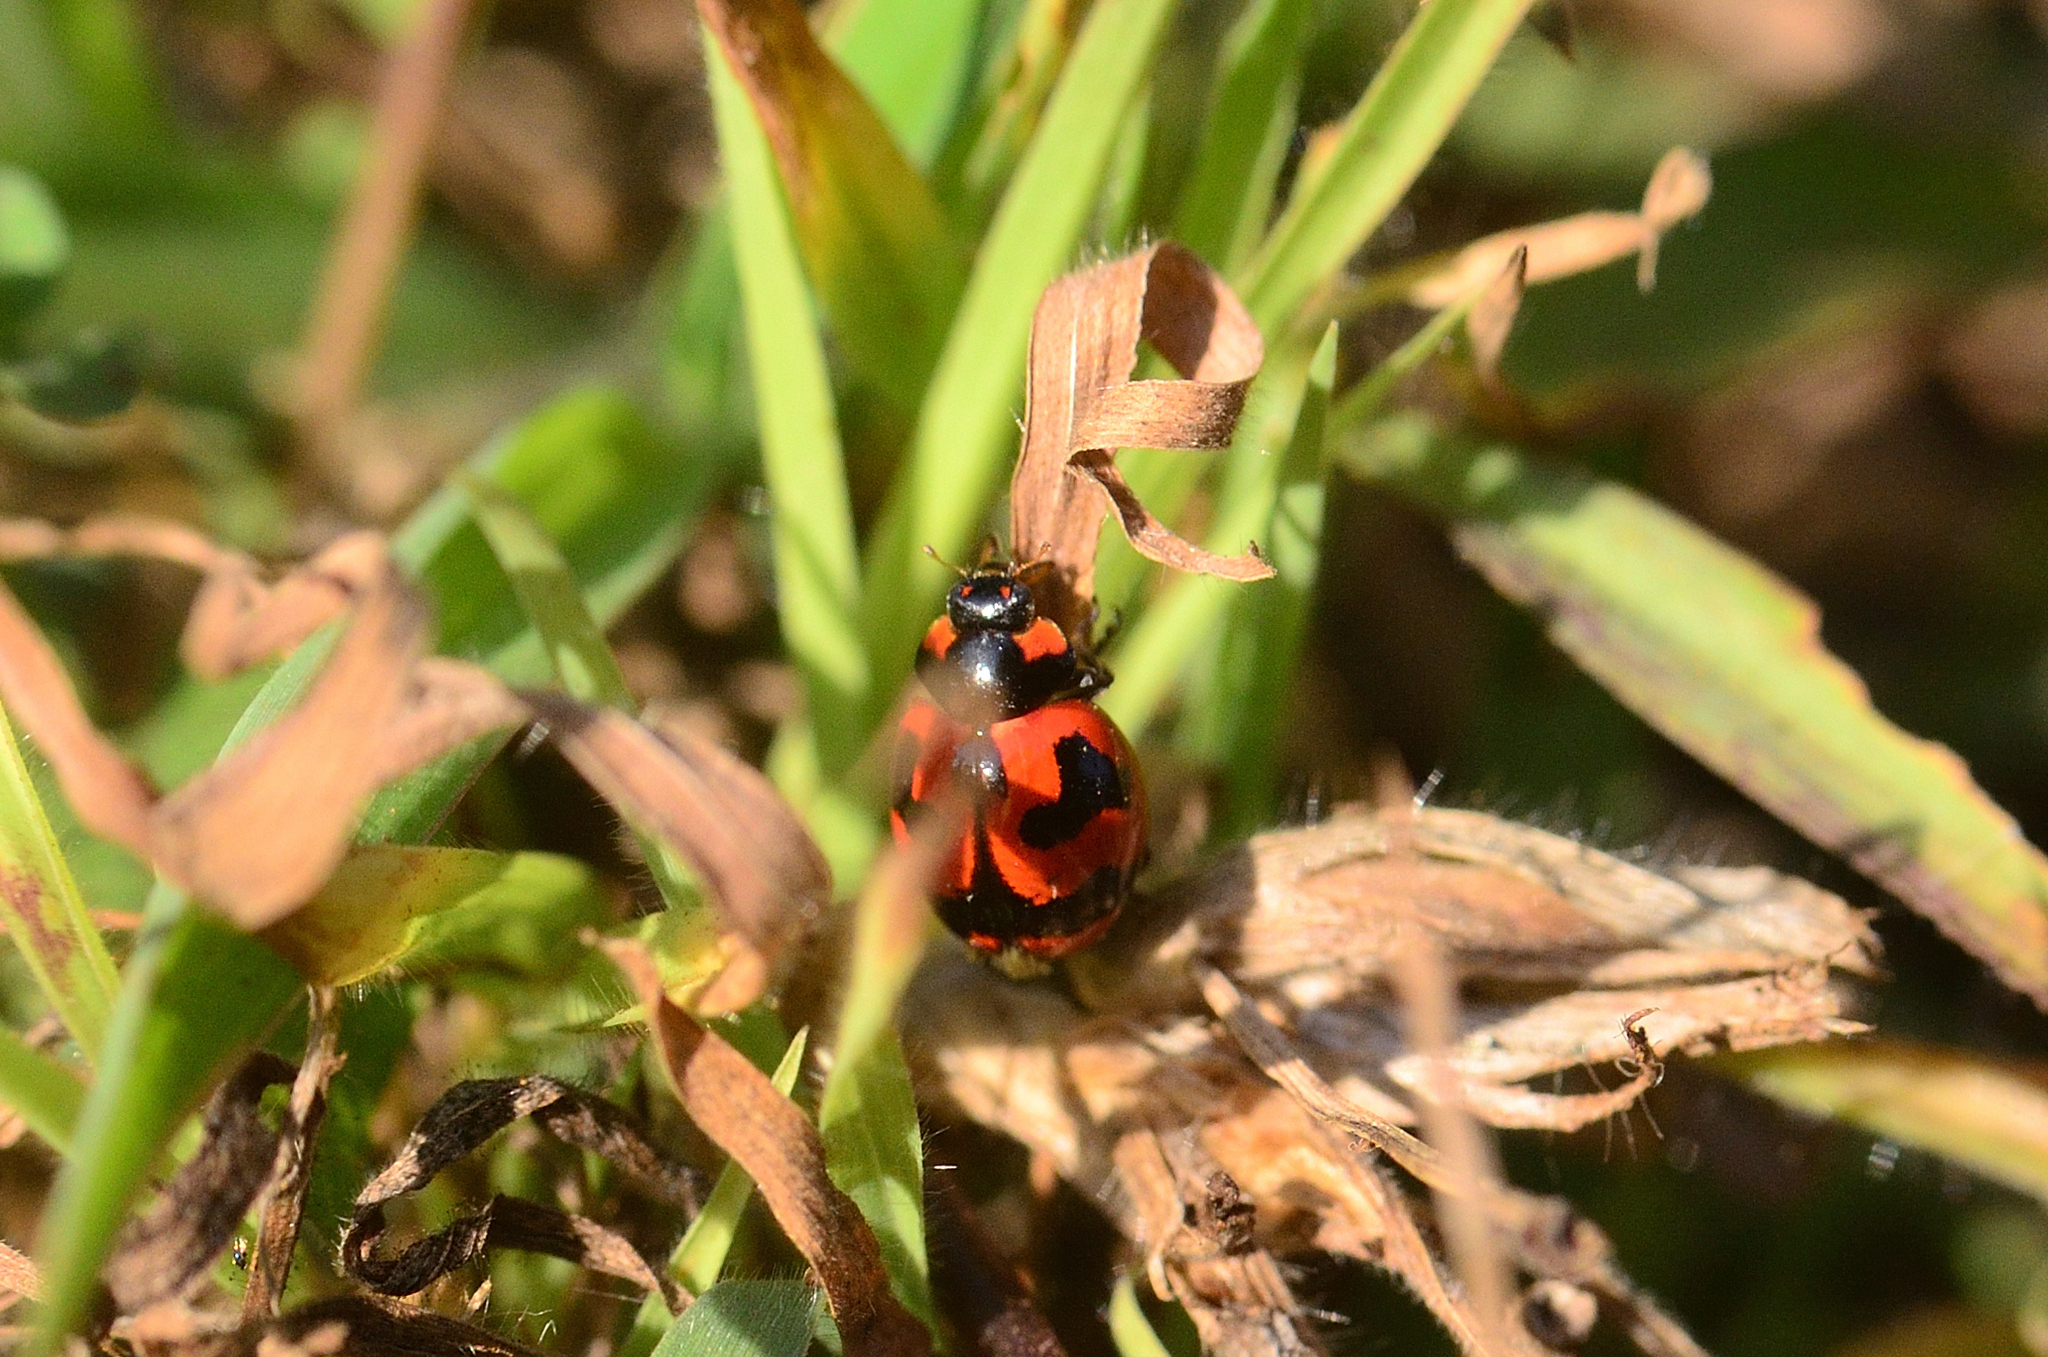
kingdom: Animalia
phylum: Arthropoda
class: Insecta
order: Coleoptera
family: Coccinellidae
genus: Coccinella
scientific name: Coccinella transversalis
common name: Transverse lady beetle
